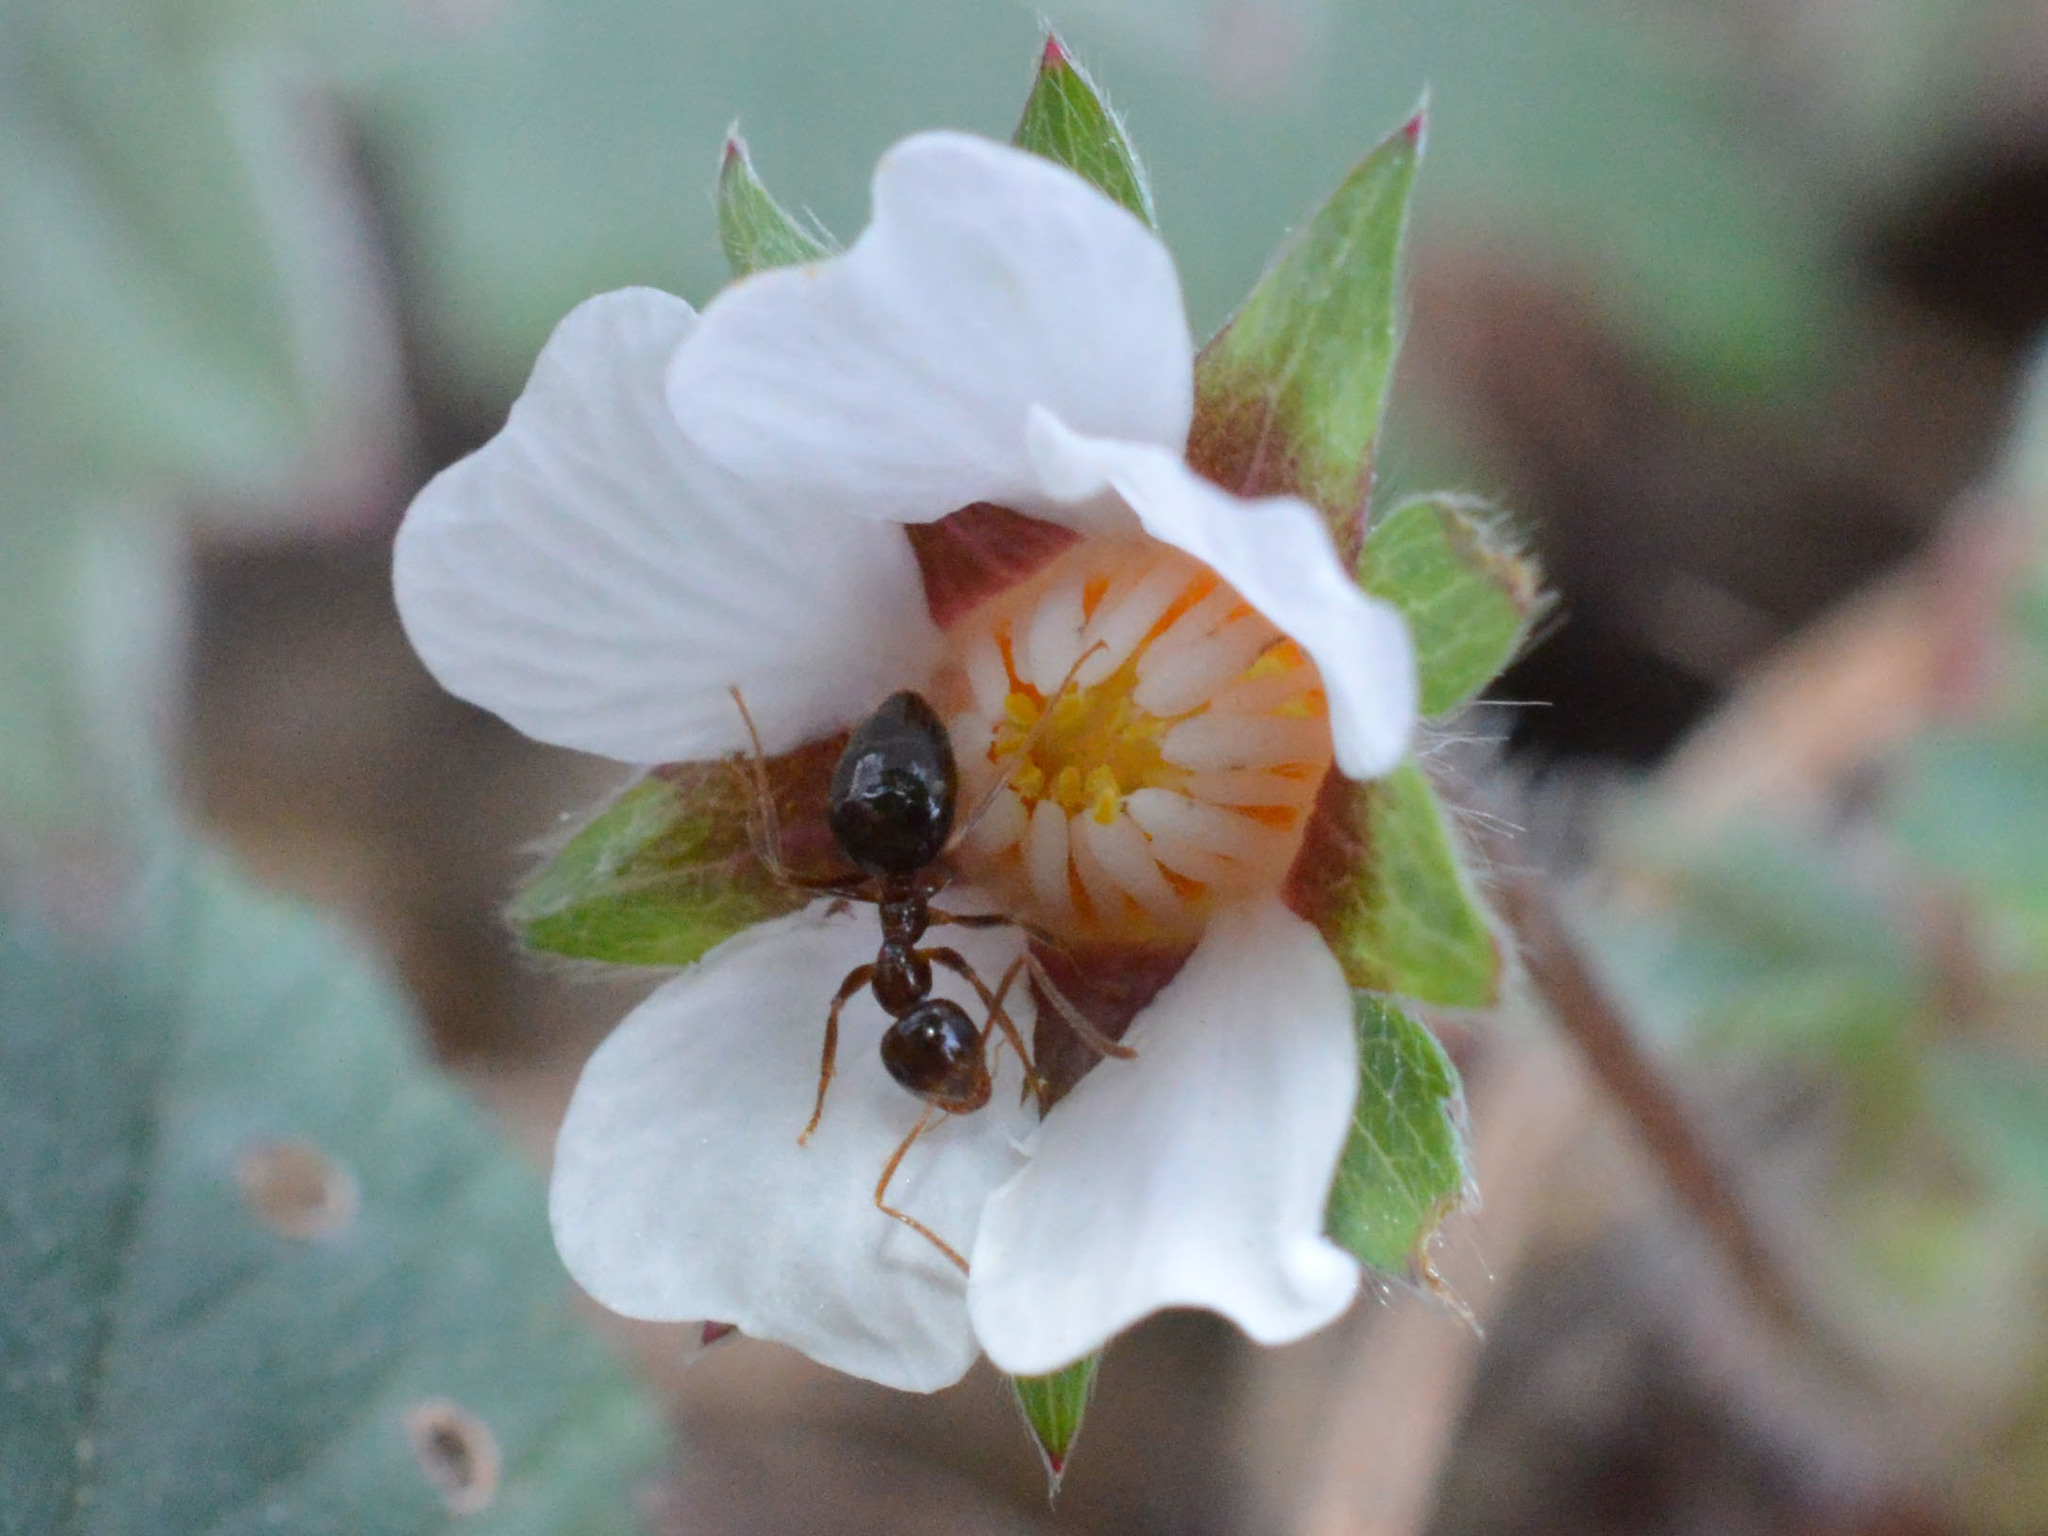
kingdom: Plantae
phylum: Tracheophyta
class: Magnoliopsida
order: Rosales
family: Rosaceae
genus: Potentilla
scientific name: Potentilla micrantha
